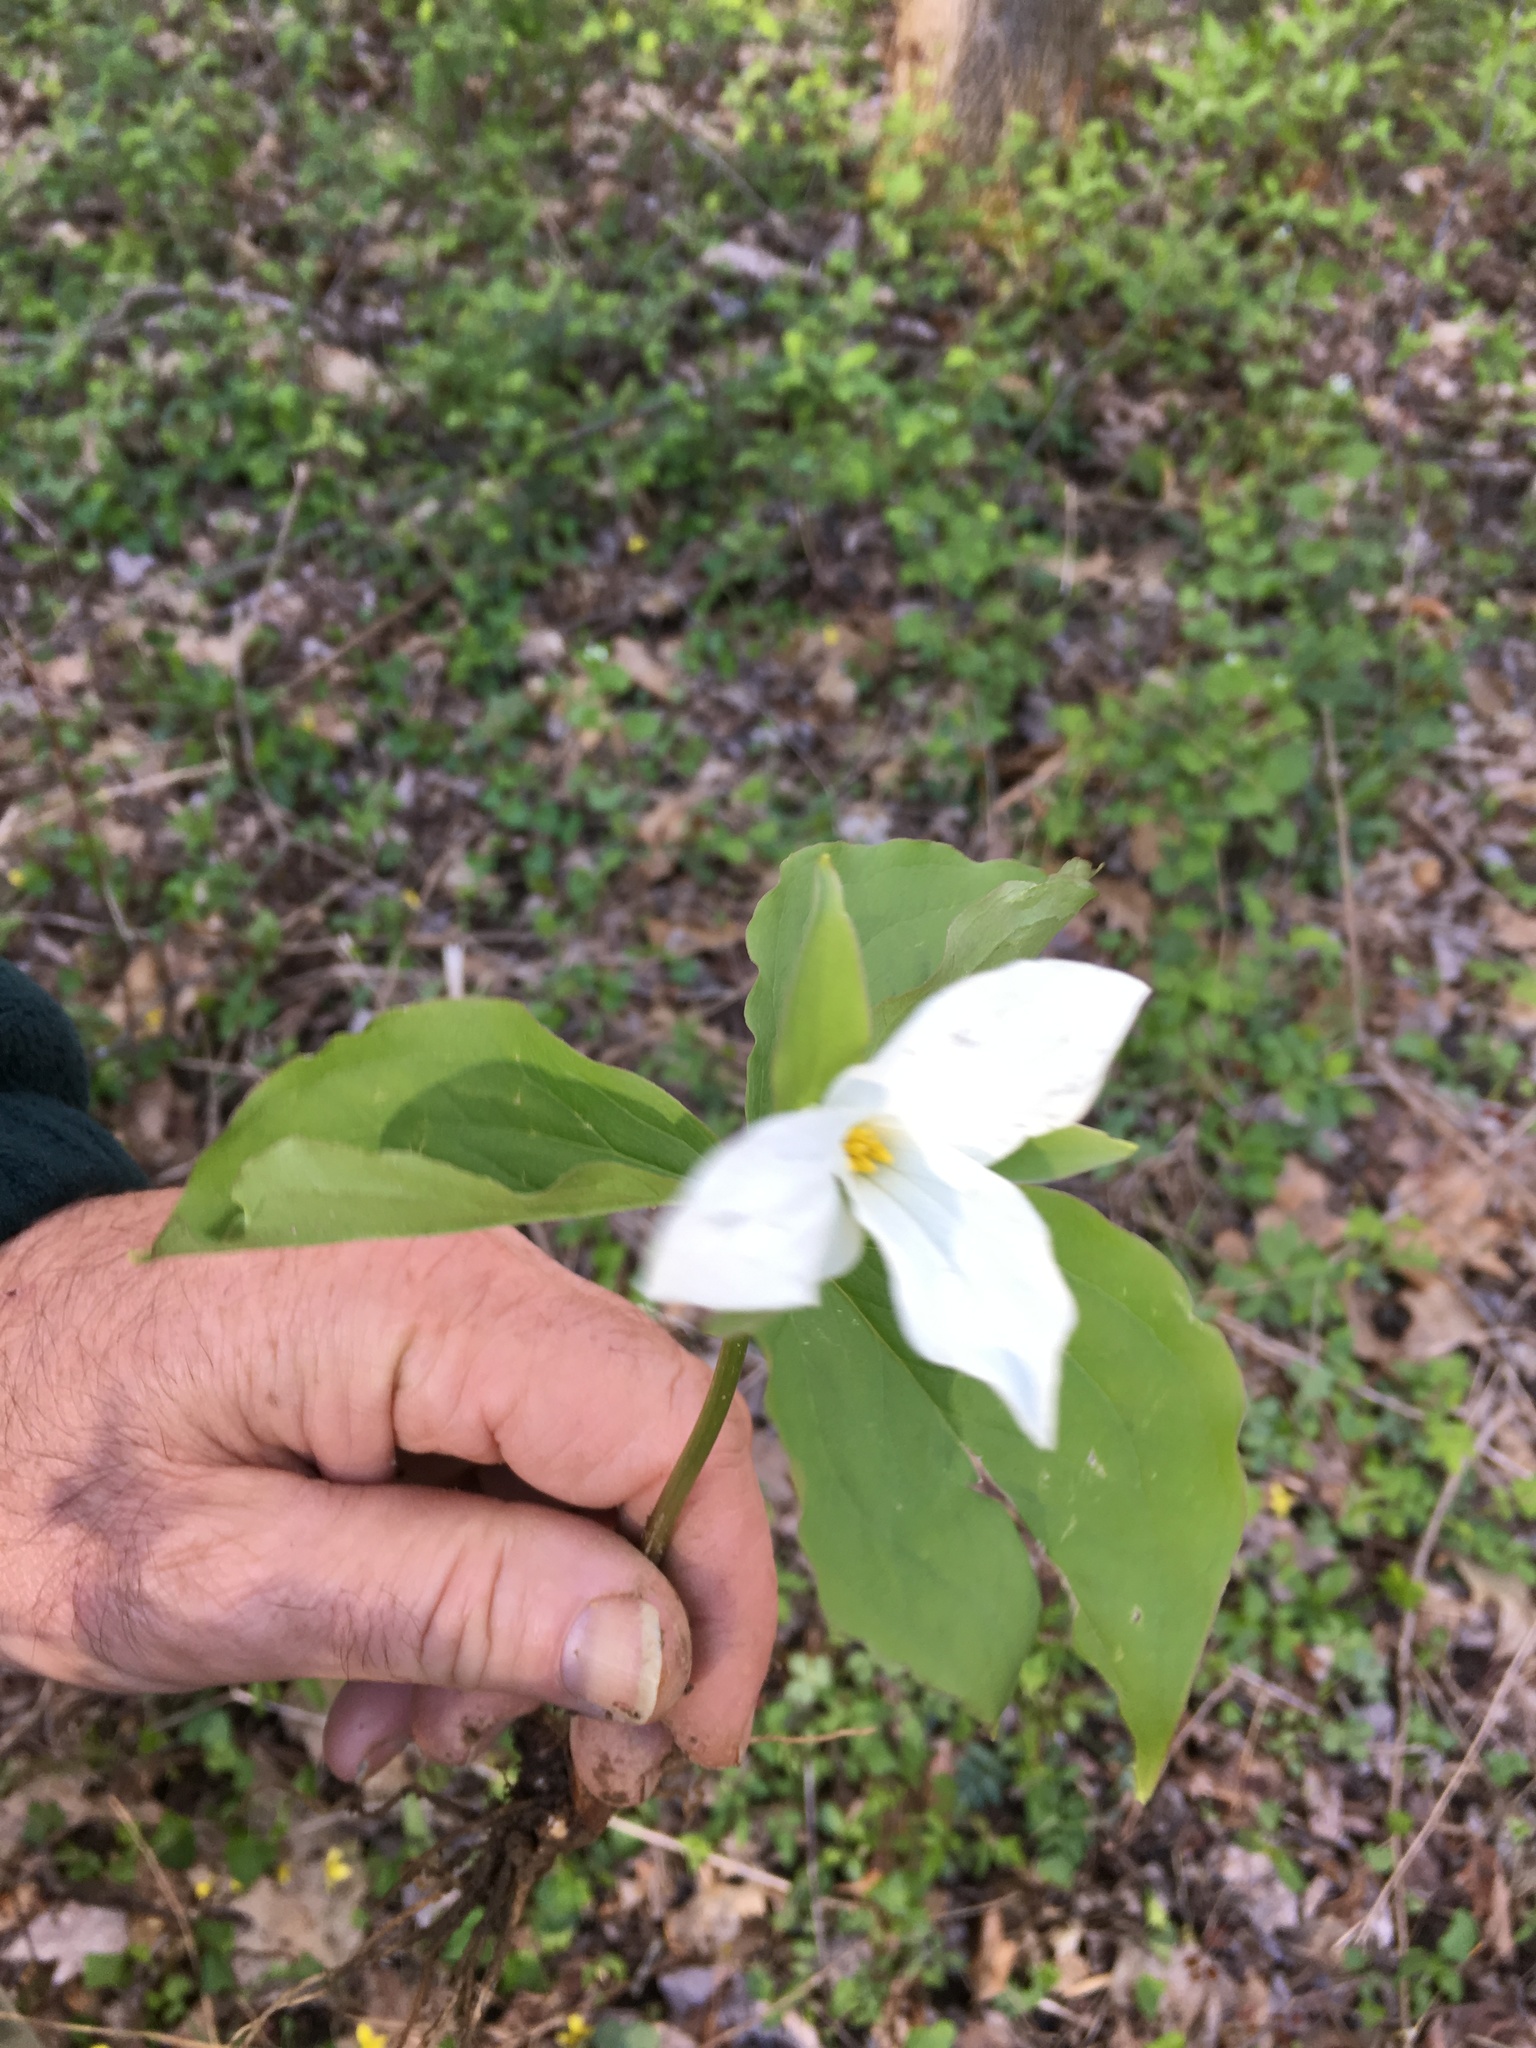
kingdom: Plantae
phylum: Tracheophyta
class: Liliopsida
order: Liliales
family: Melanthiaceae
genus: Trillium
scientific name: Trillium grandiflorum
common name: Great white trillium
